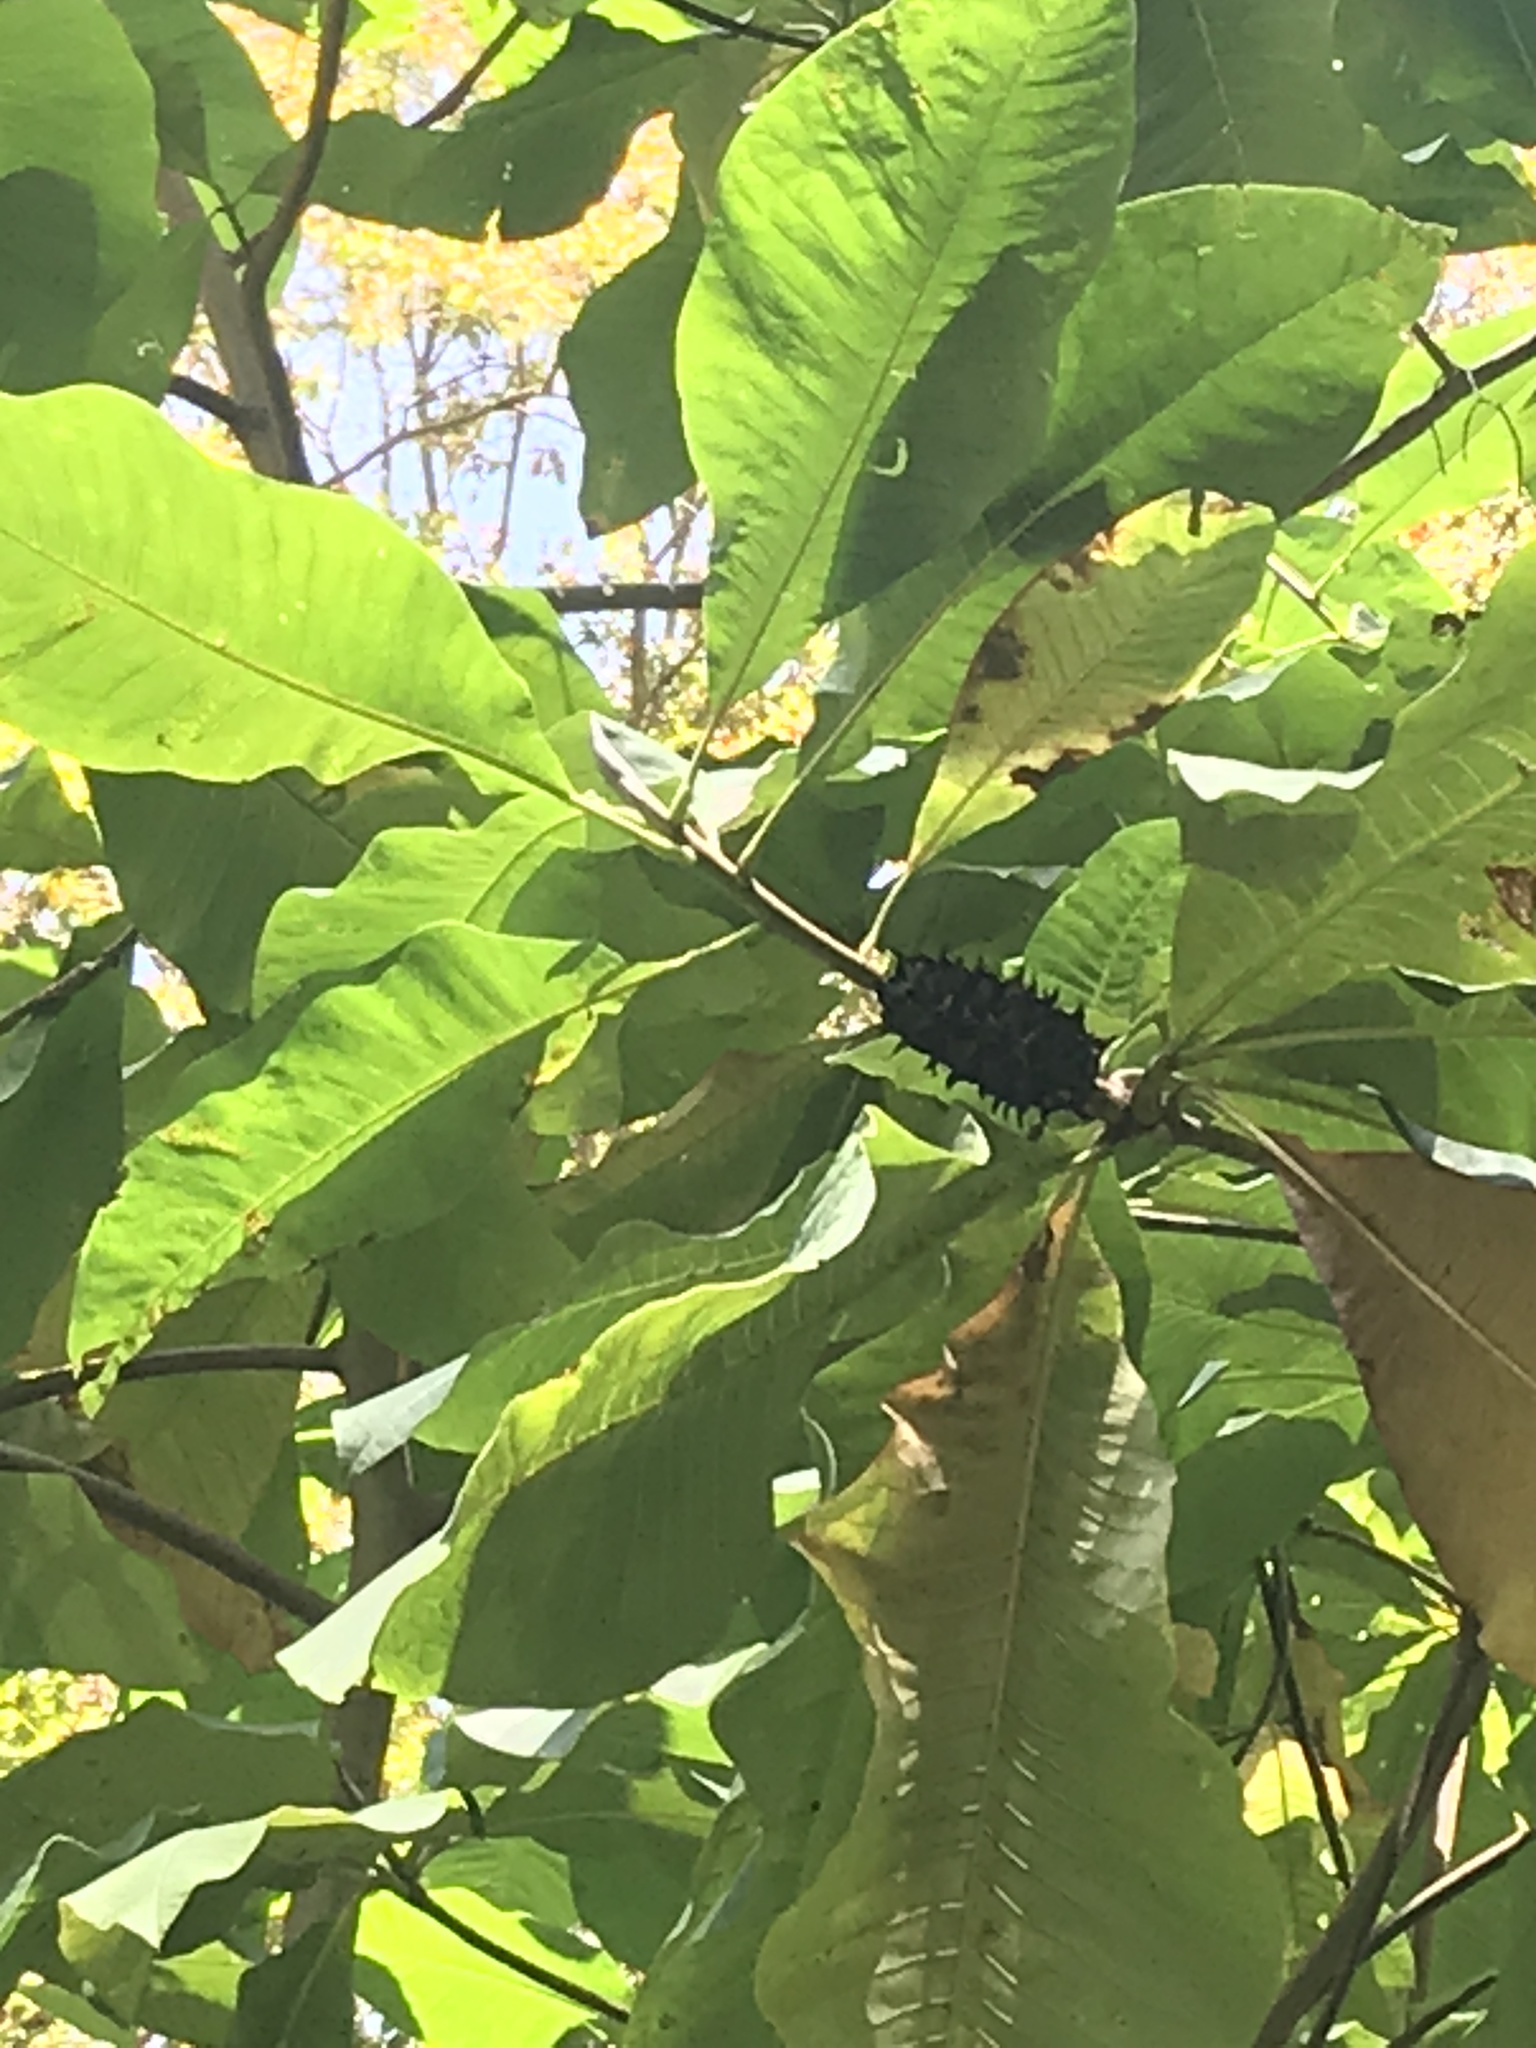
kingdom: Plantae
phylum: Tracheophyta
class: Magnoliopsida
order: Magnoliales
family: Magnoliaceae
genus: Magnolia
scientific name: Magnolia tripetala
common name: Umbrella magnolia
